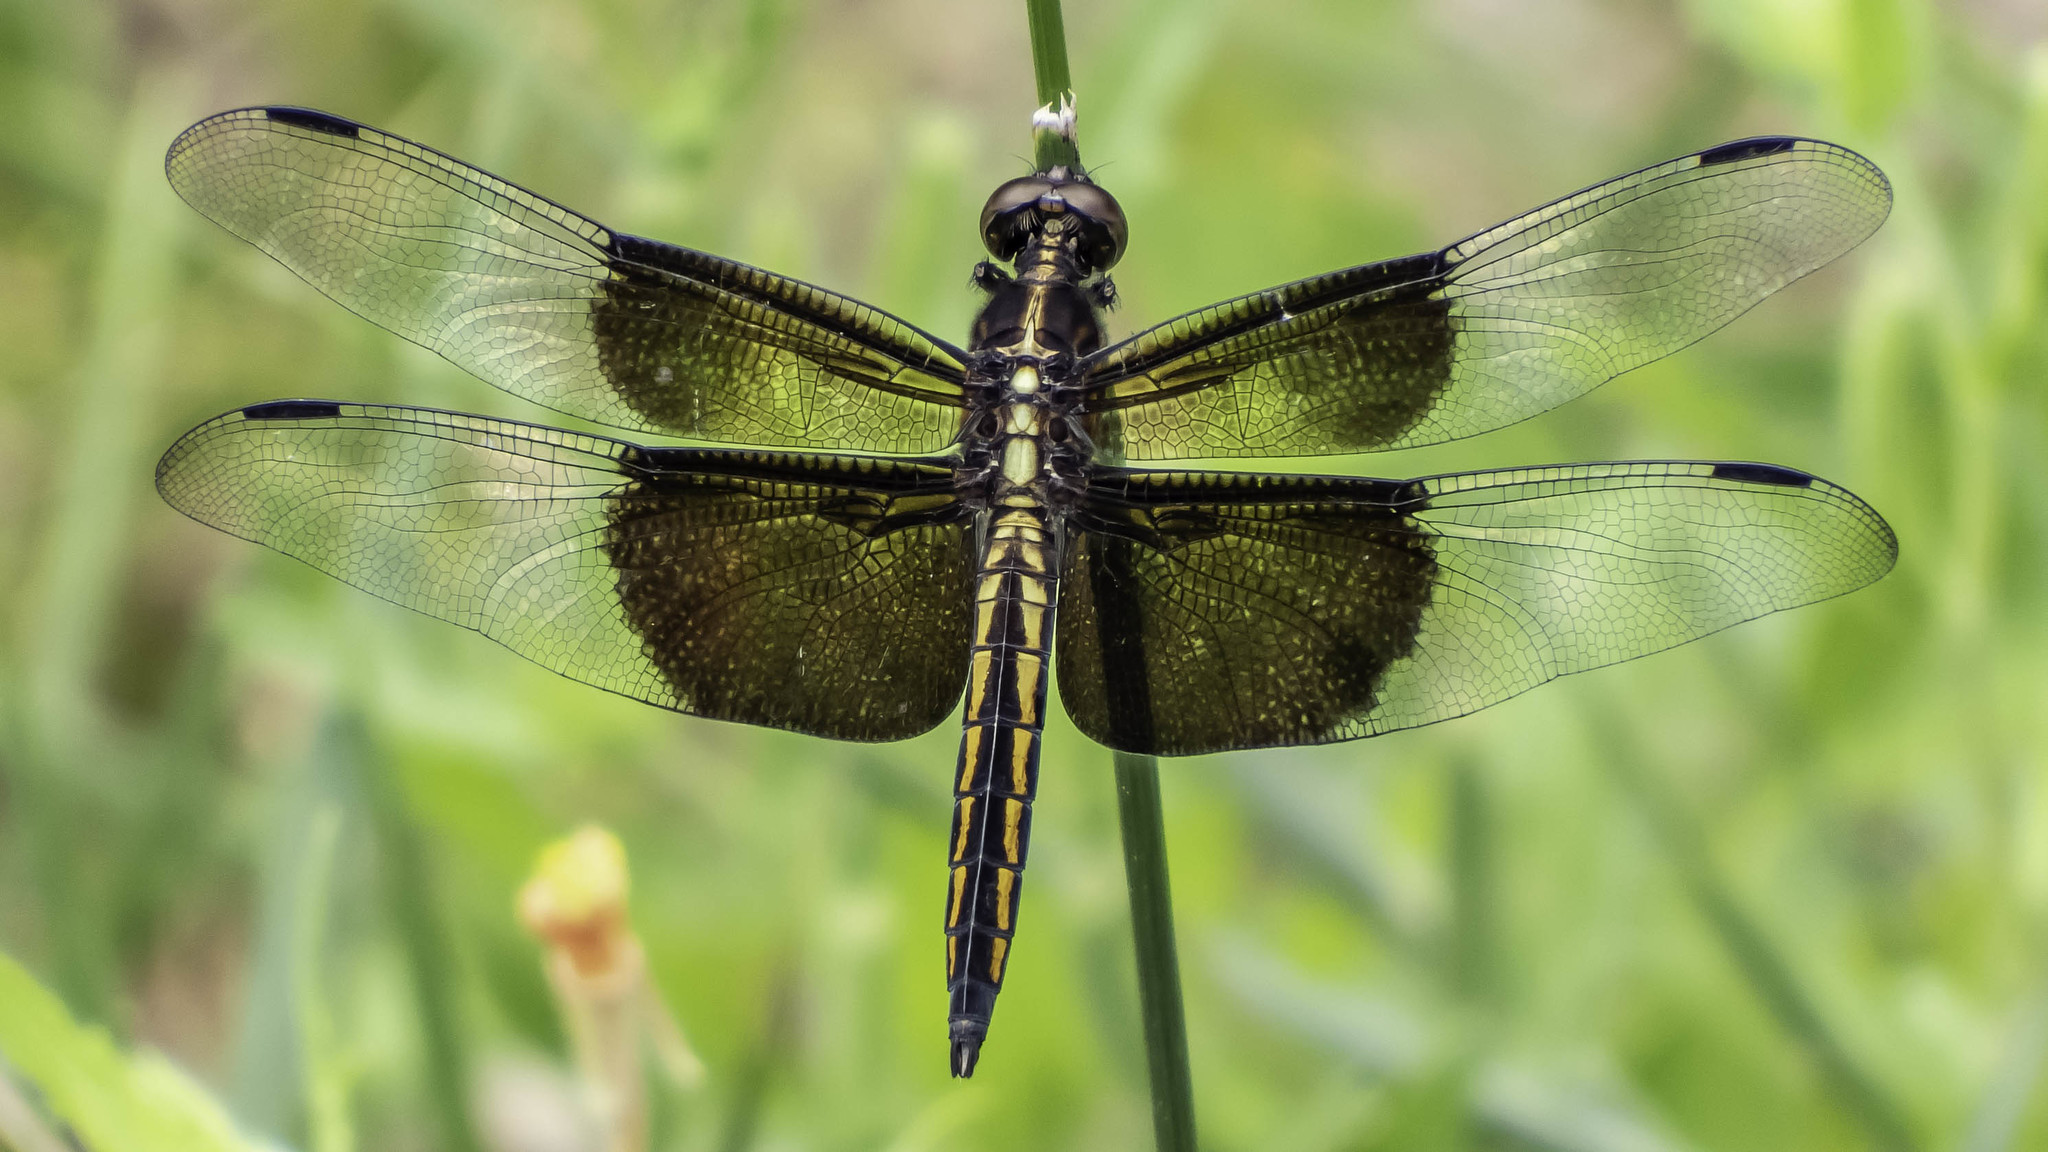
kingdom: Animalia
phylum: Arthropoda
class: Insecta
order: Odonata
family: Libellulidae
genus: Libellula
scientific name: Libellula luctuosa
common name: Widow skimmer
